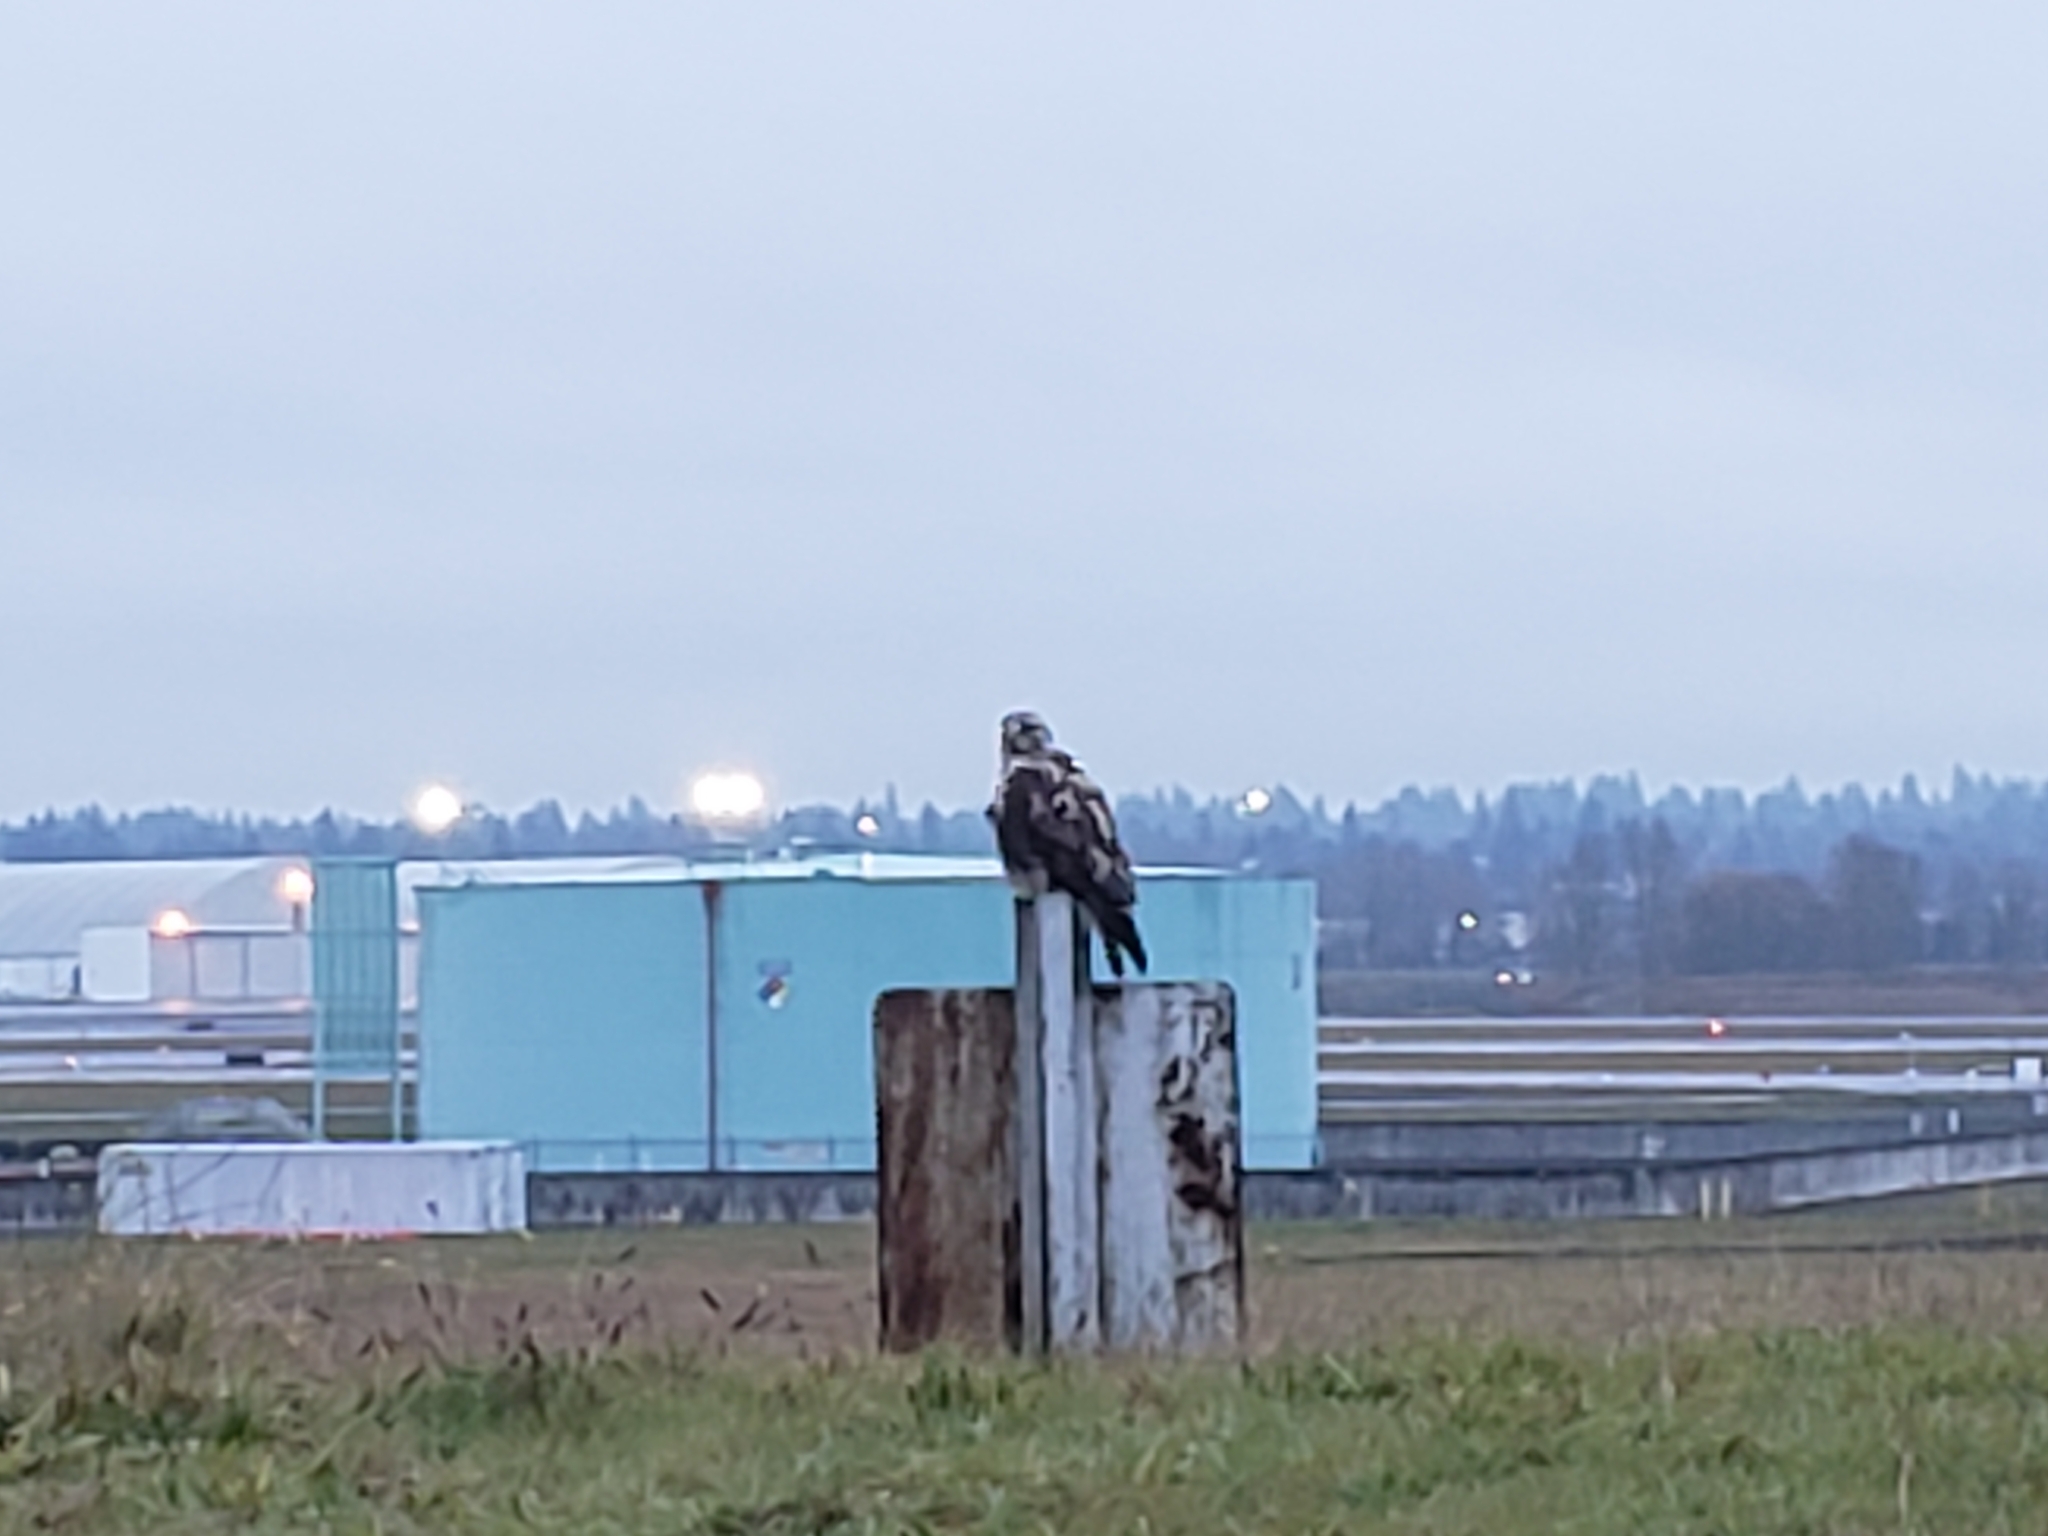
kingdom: Animalia
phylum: Chordata
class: Aves
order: Accipitriformes
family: Accipitridae
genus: Buteo
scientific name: Buteo lagopus
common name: Rough-legged buzzard
